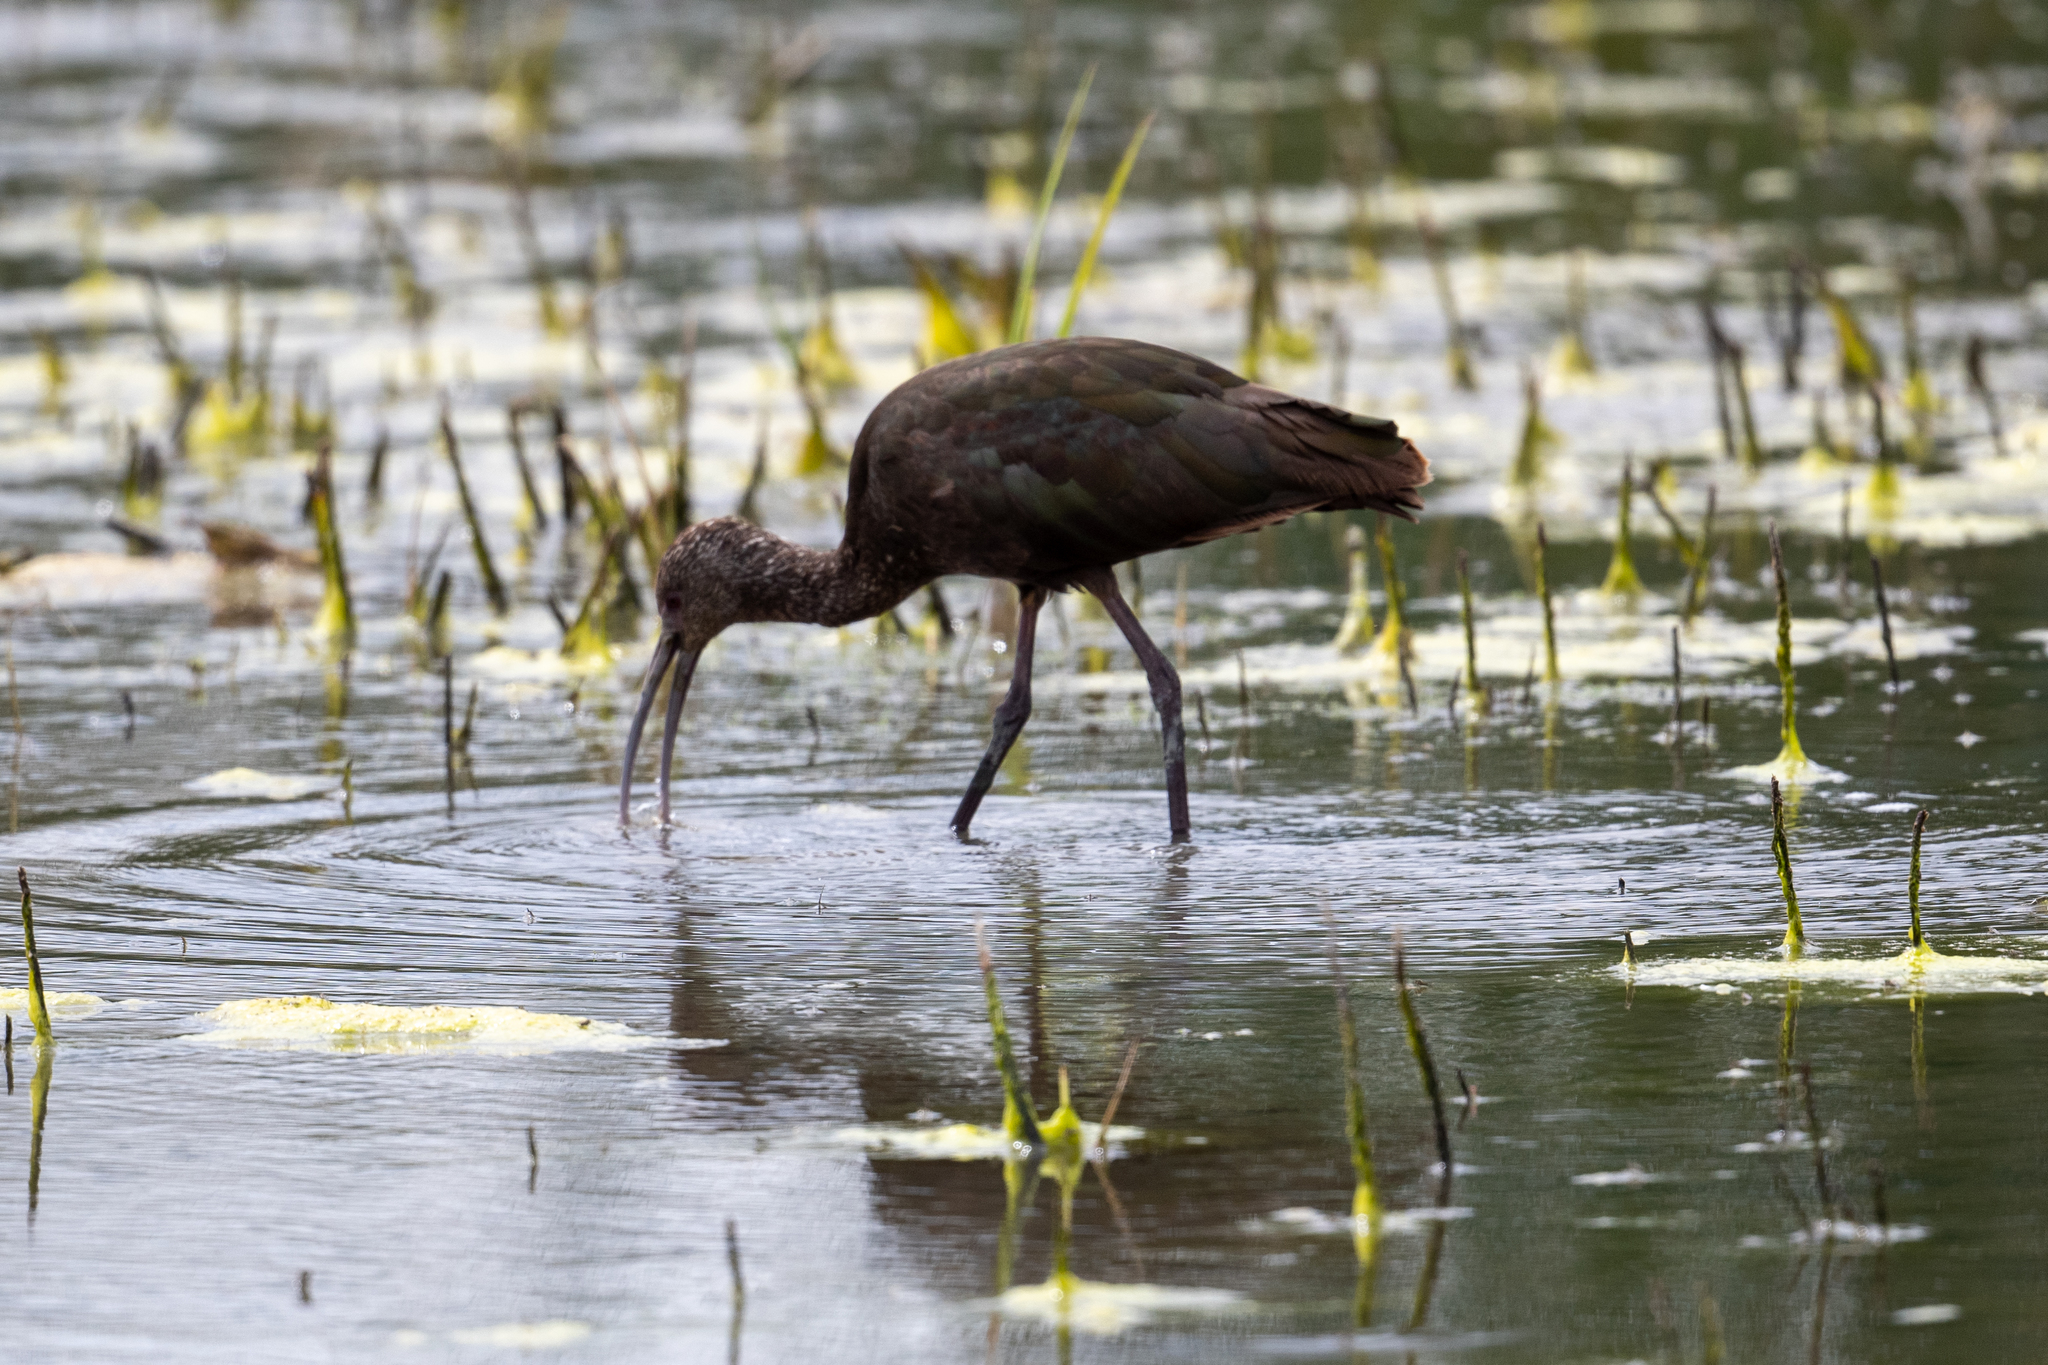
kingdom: Animalia
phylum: Chordata
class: Aves
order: Pelecaniformes
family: Threskiornithidae
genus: Plegadis
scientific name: Plegadis chihi
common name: White-faced ibis
